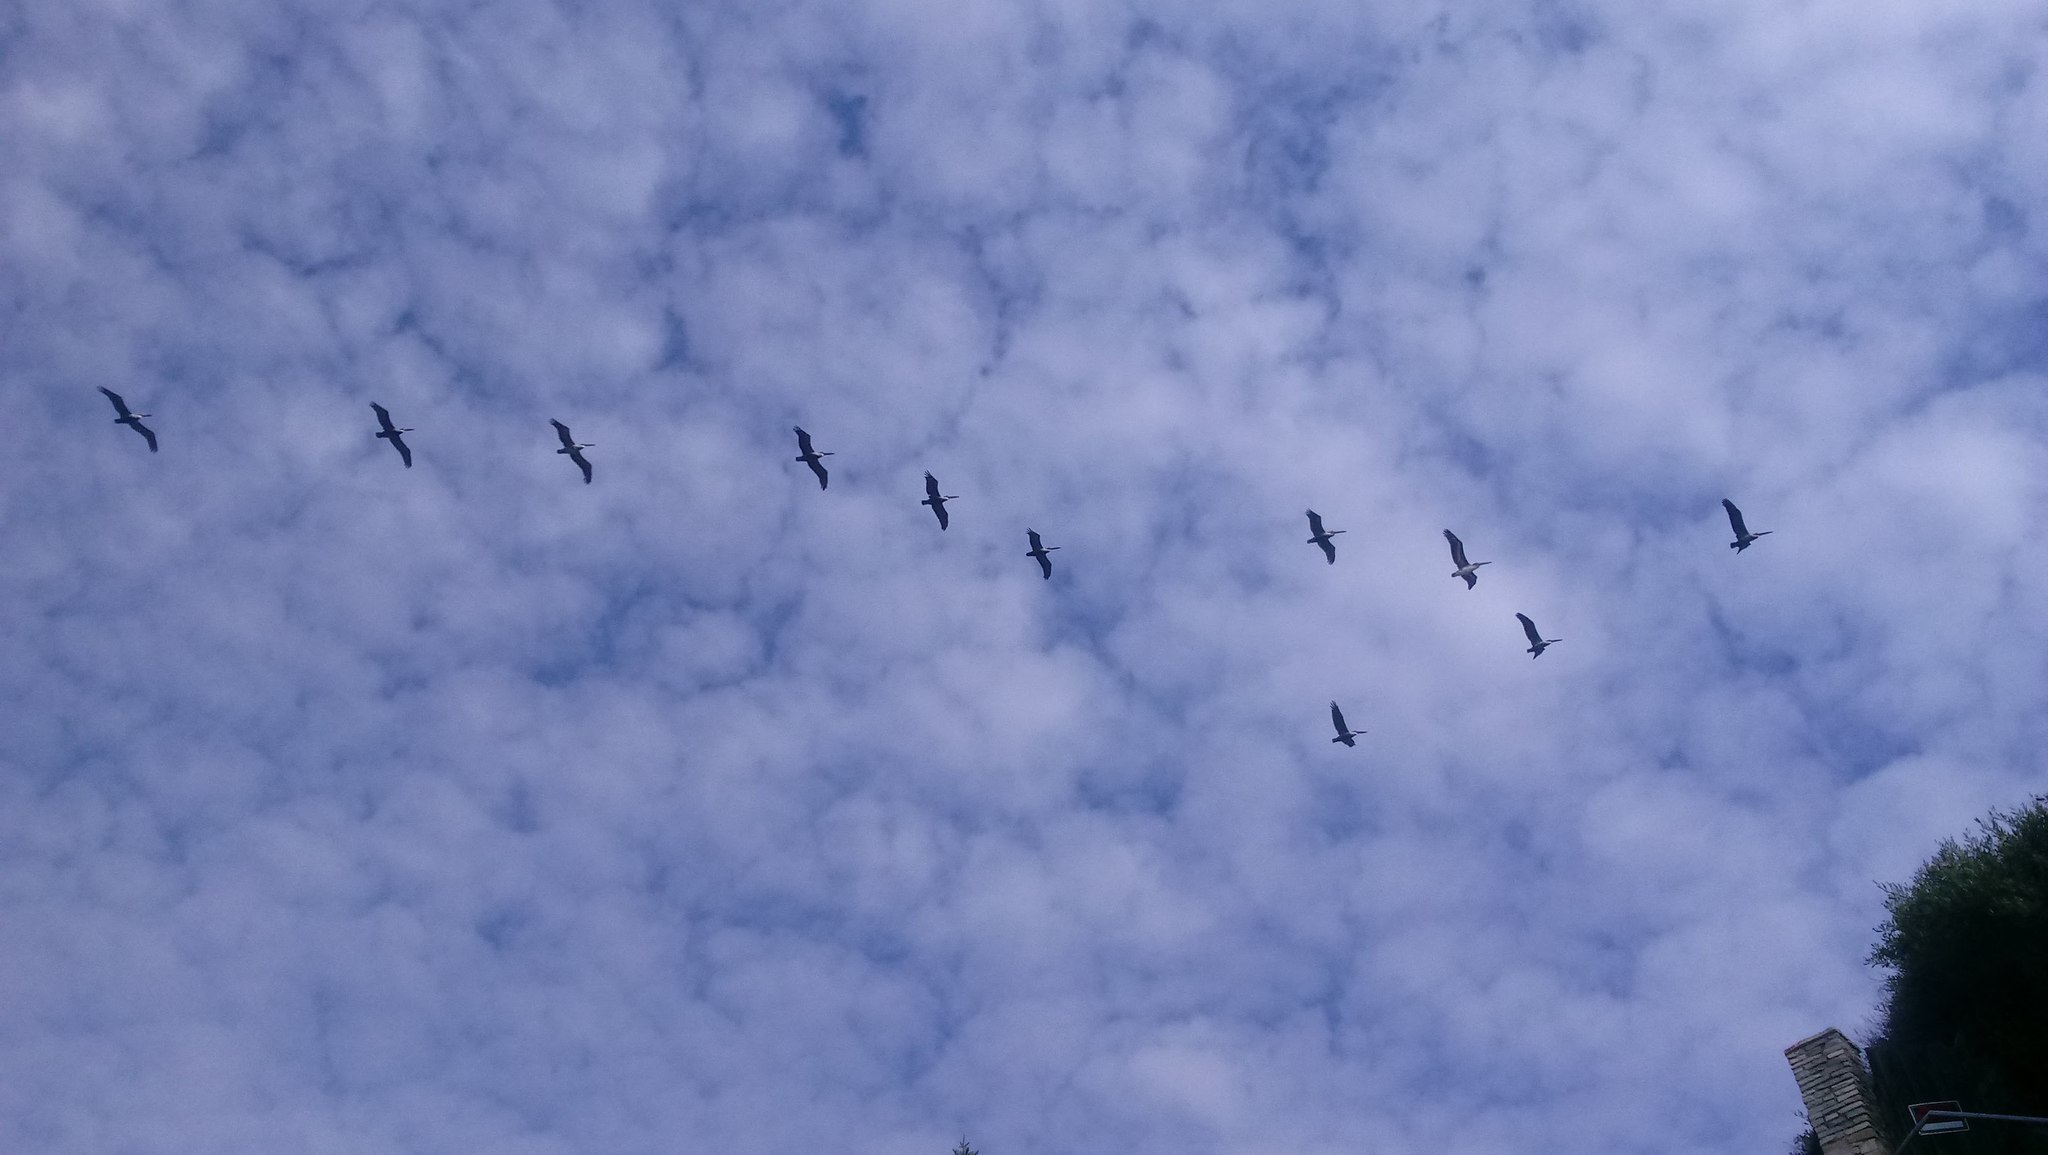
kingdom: Animalia
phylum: Chordata
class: Aves
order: Pelecaniformes
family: Pelecanidae
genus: Pelecanus
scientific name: Pelecanus occidentalis
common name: Brown pelican
